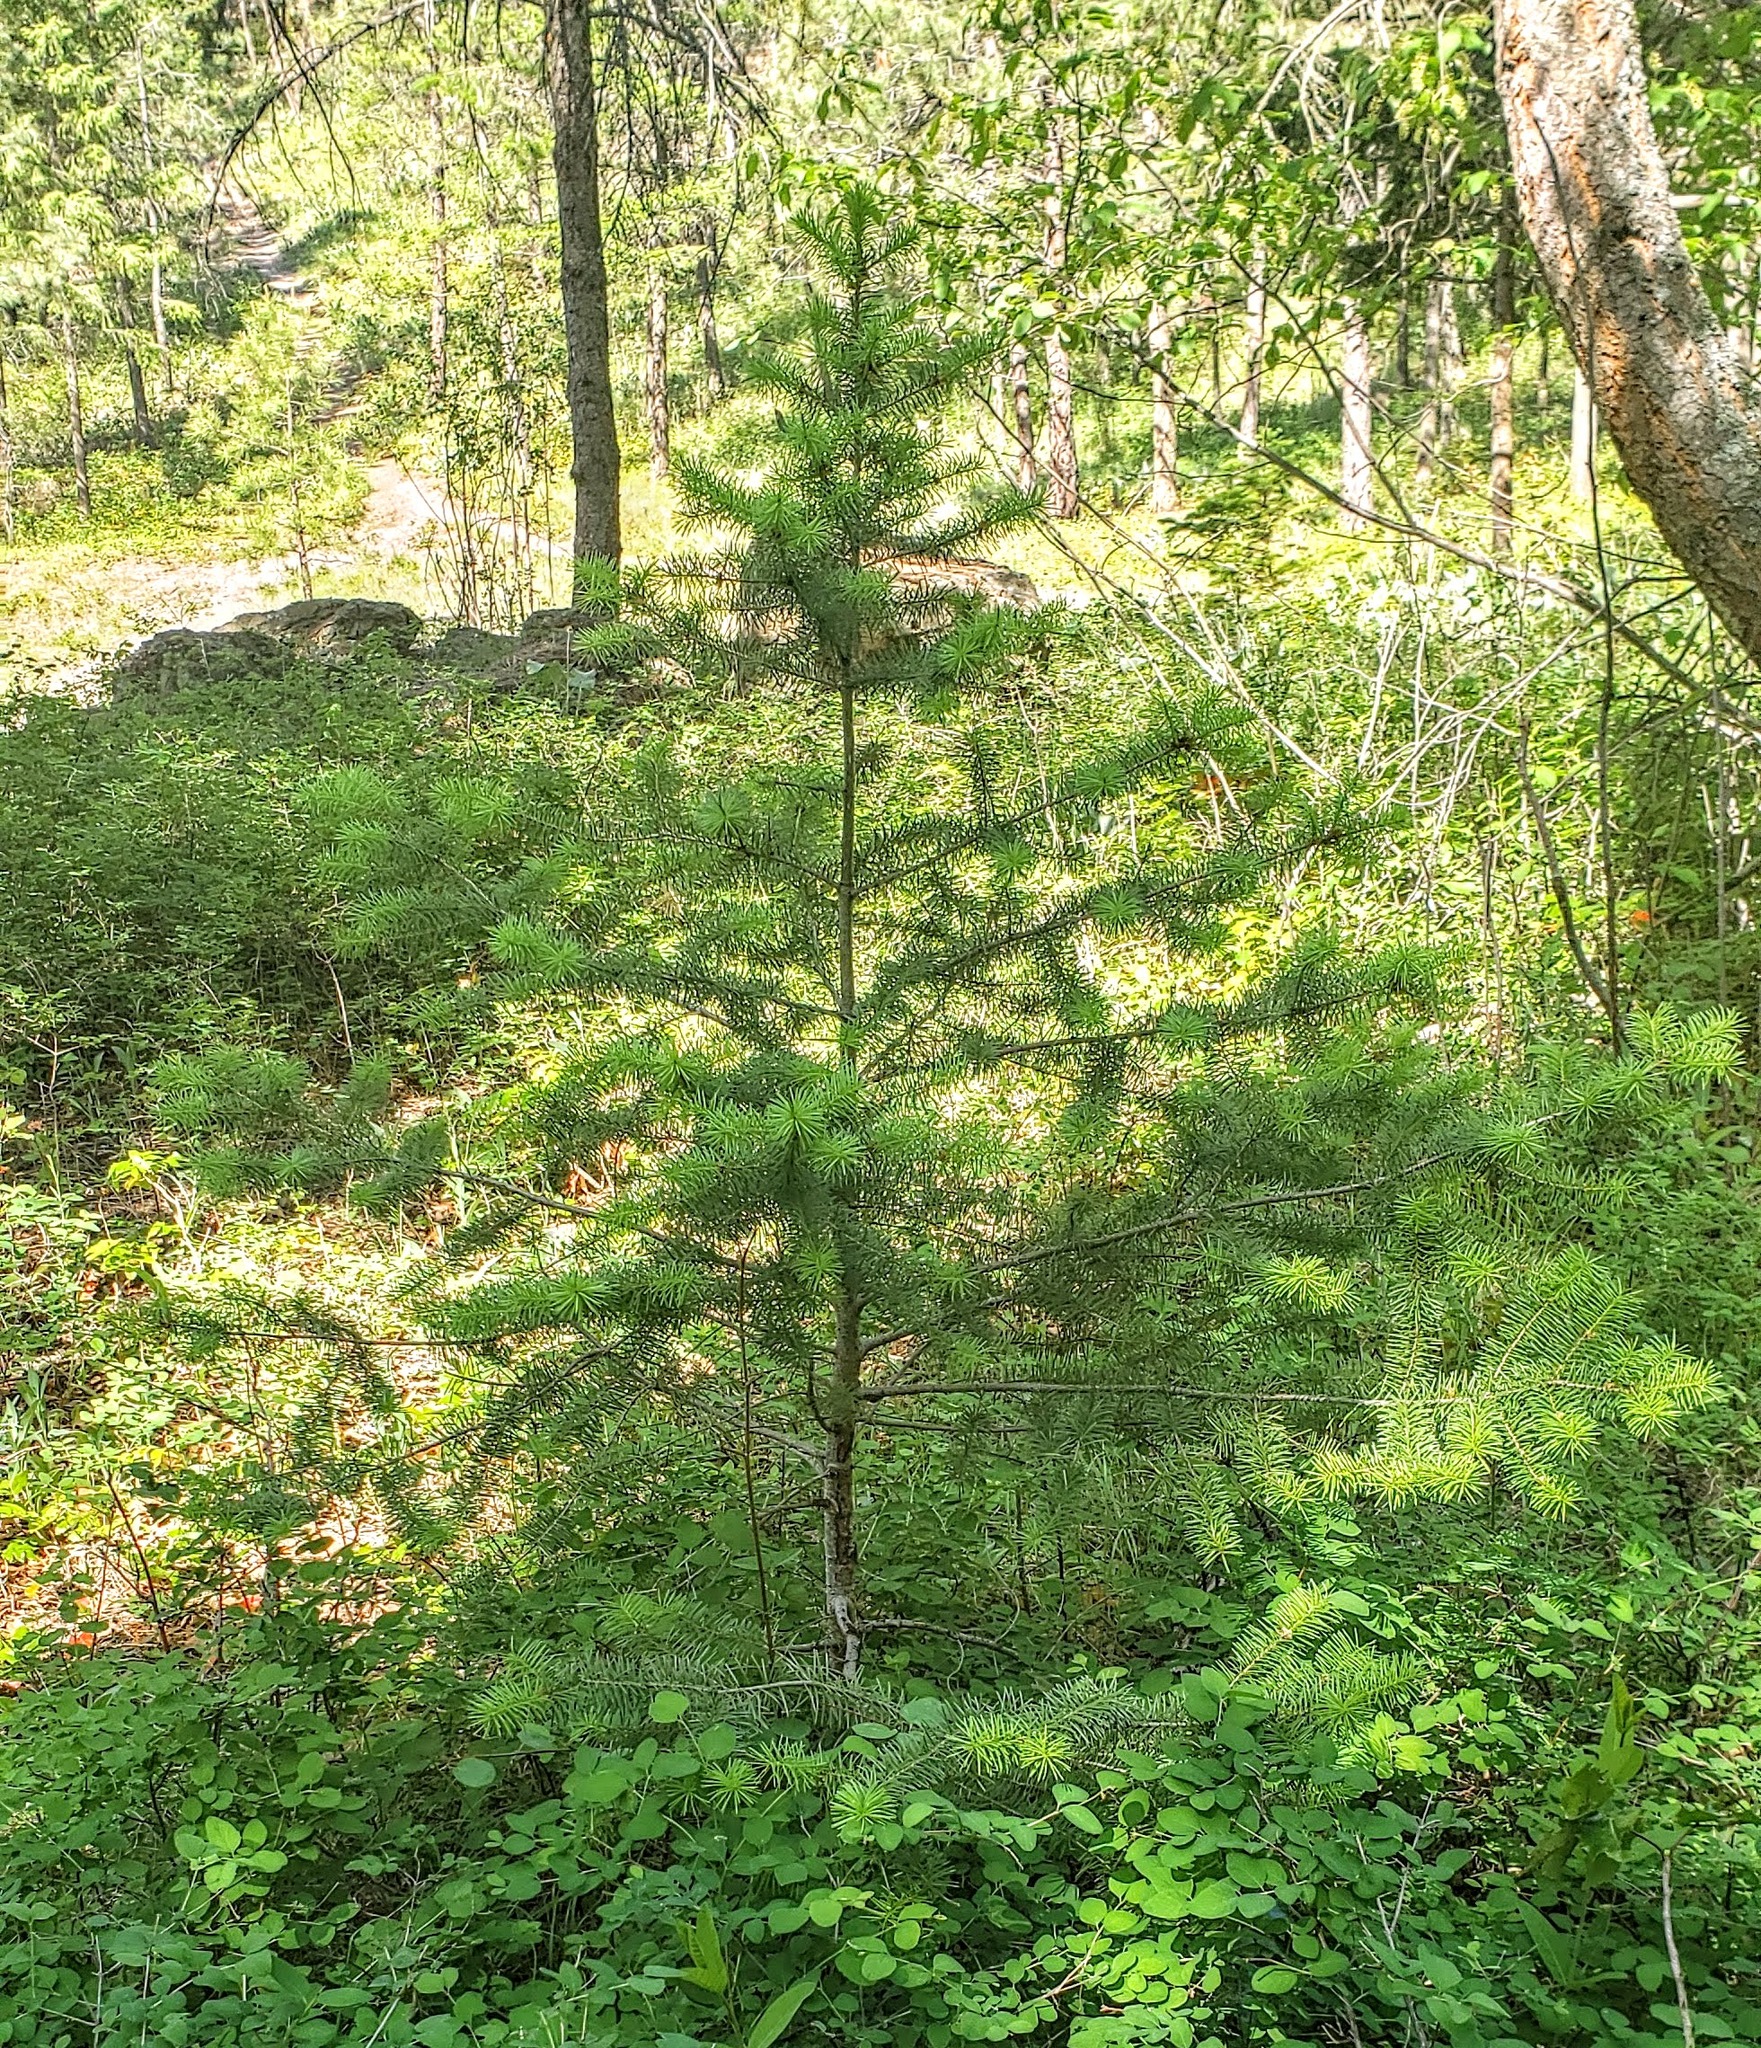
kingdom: Plantae
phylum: Tracheophyta
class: Pinopsida
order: Pinales
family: Pinaceae
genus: Pseudotsuga
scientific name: Pseudotsuga menziesii
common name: Douglas fir
